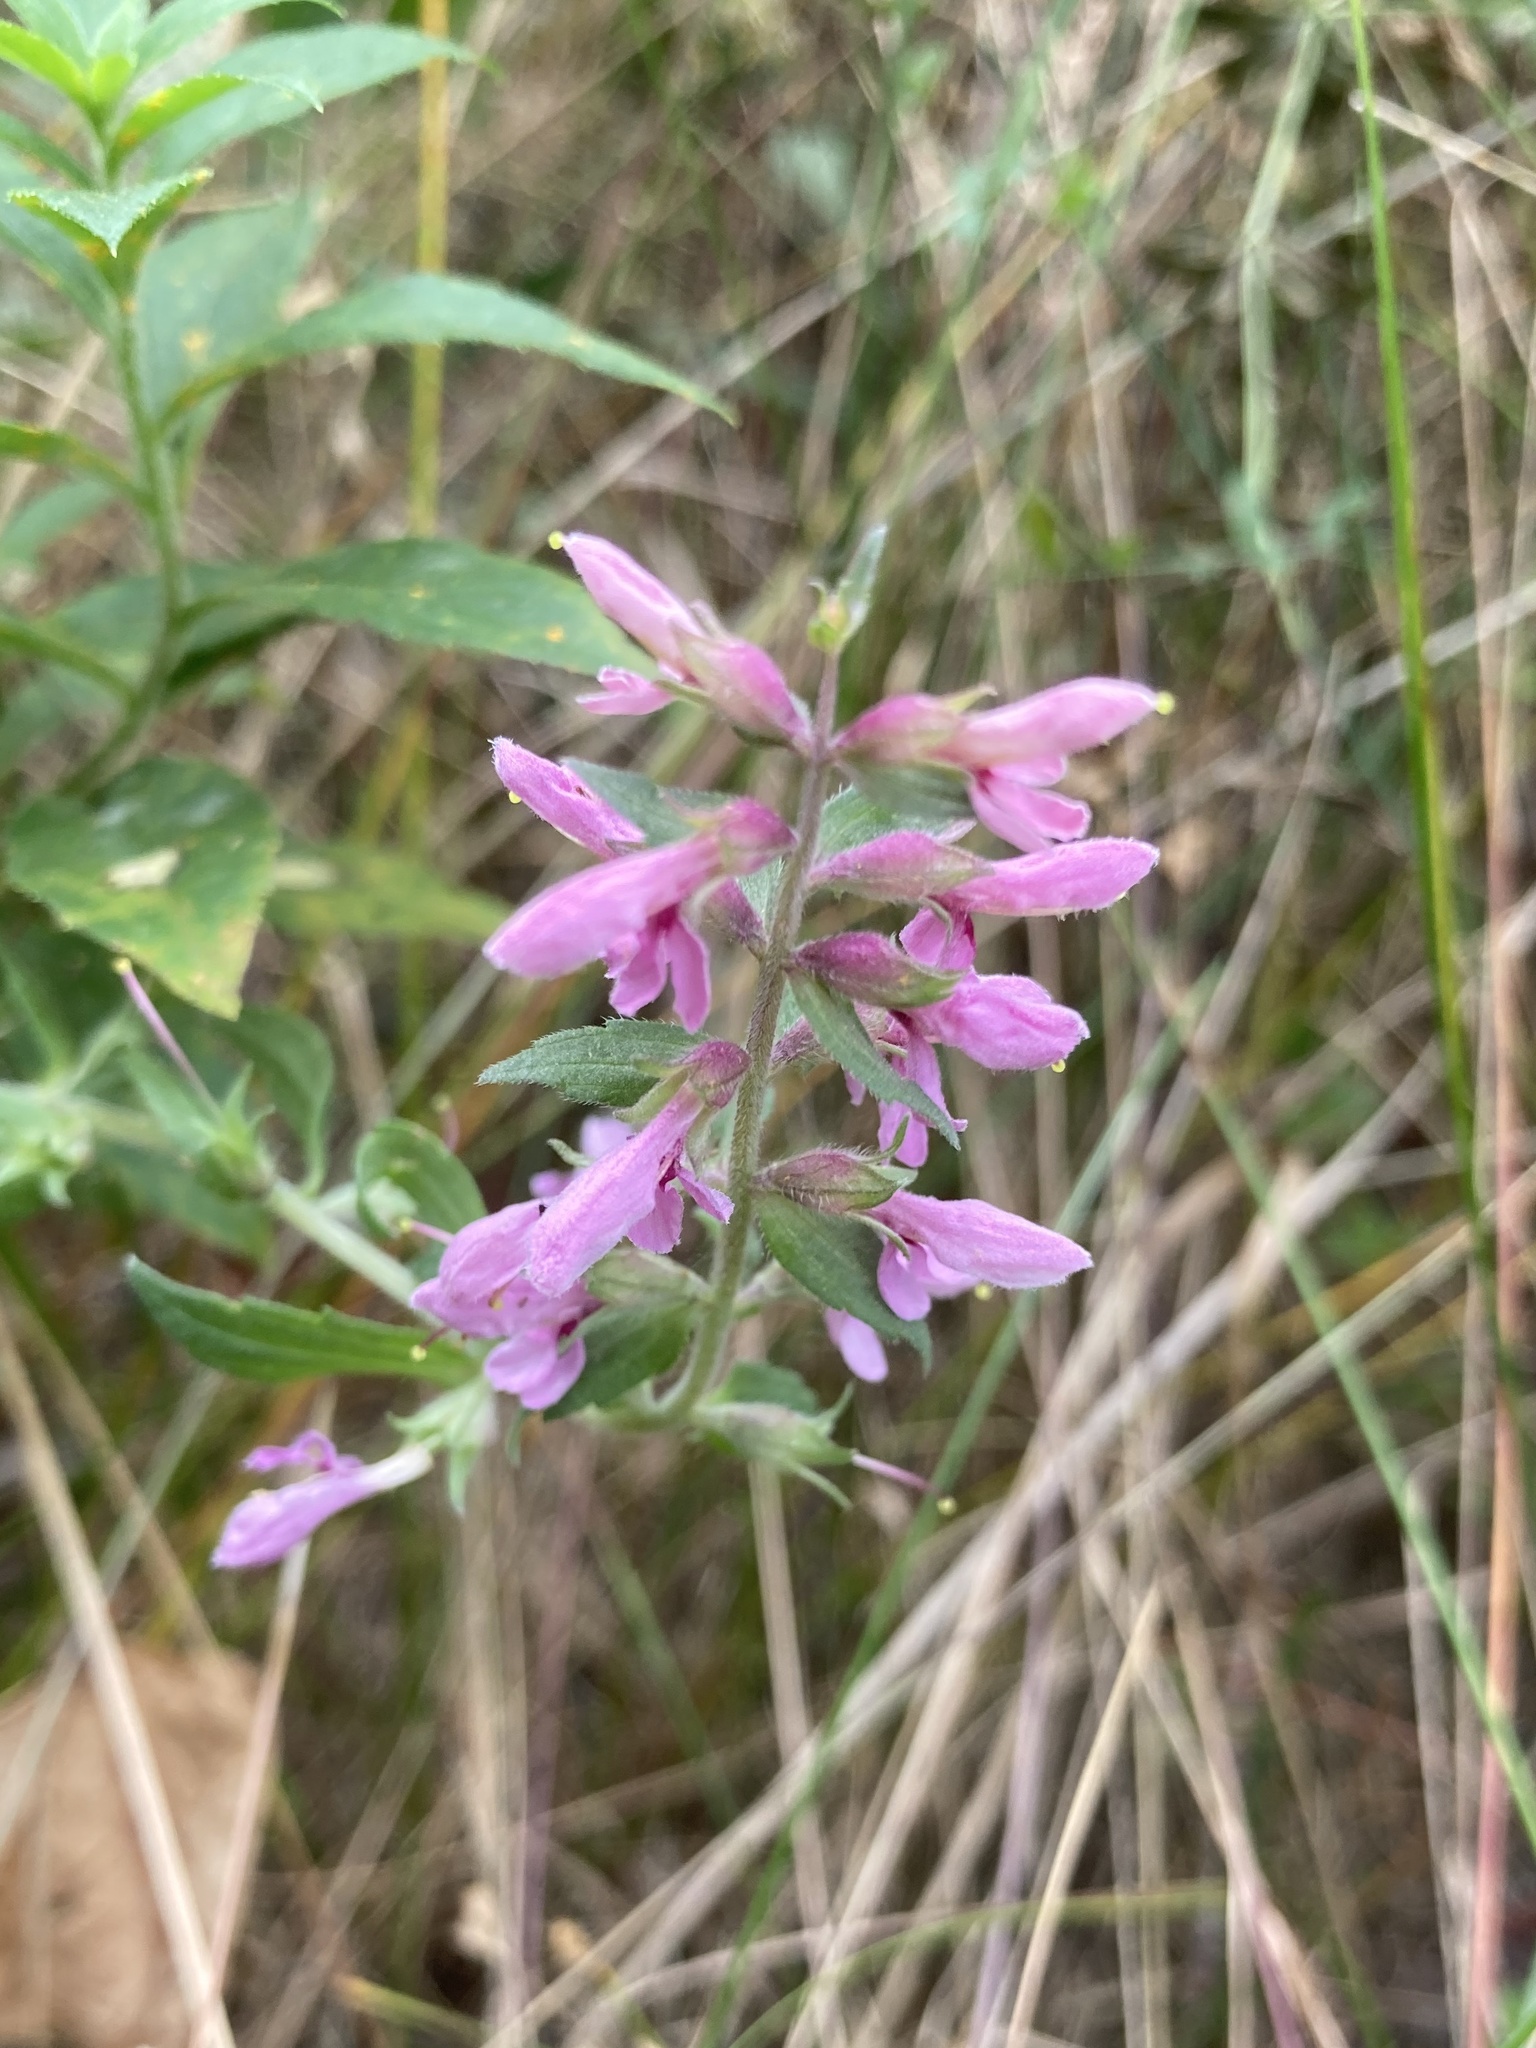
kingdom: Plantae
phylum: Tracheophyta
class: Magnoliopsida
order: Lamiales
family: Orobanchaceae
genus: Odontites
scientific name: Odontites vulgaris
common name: Broomrape
